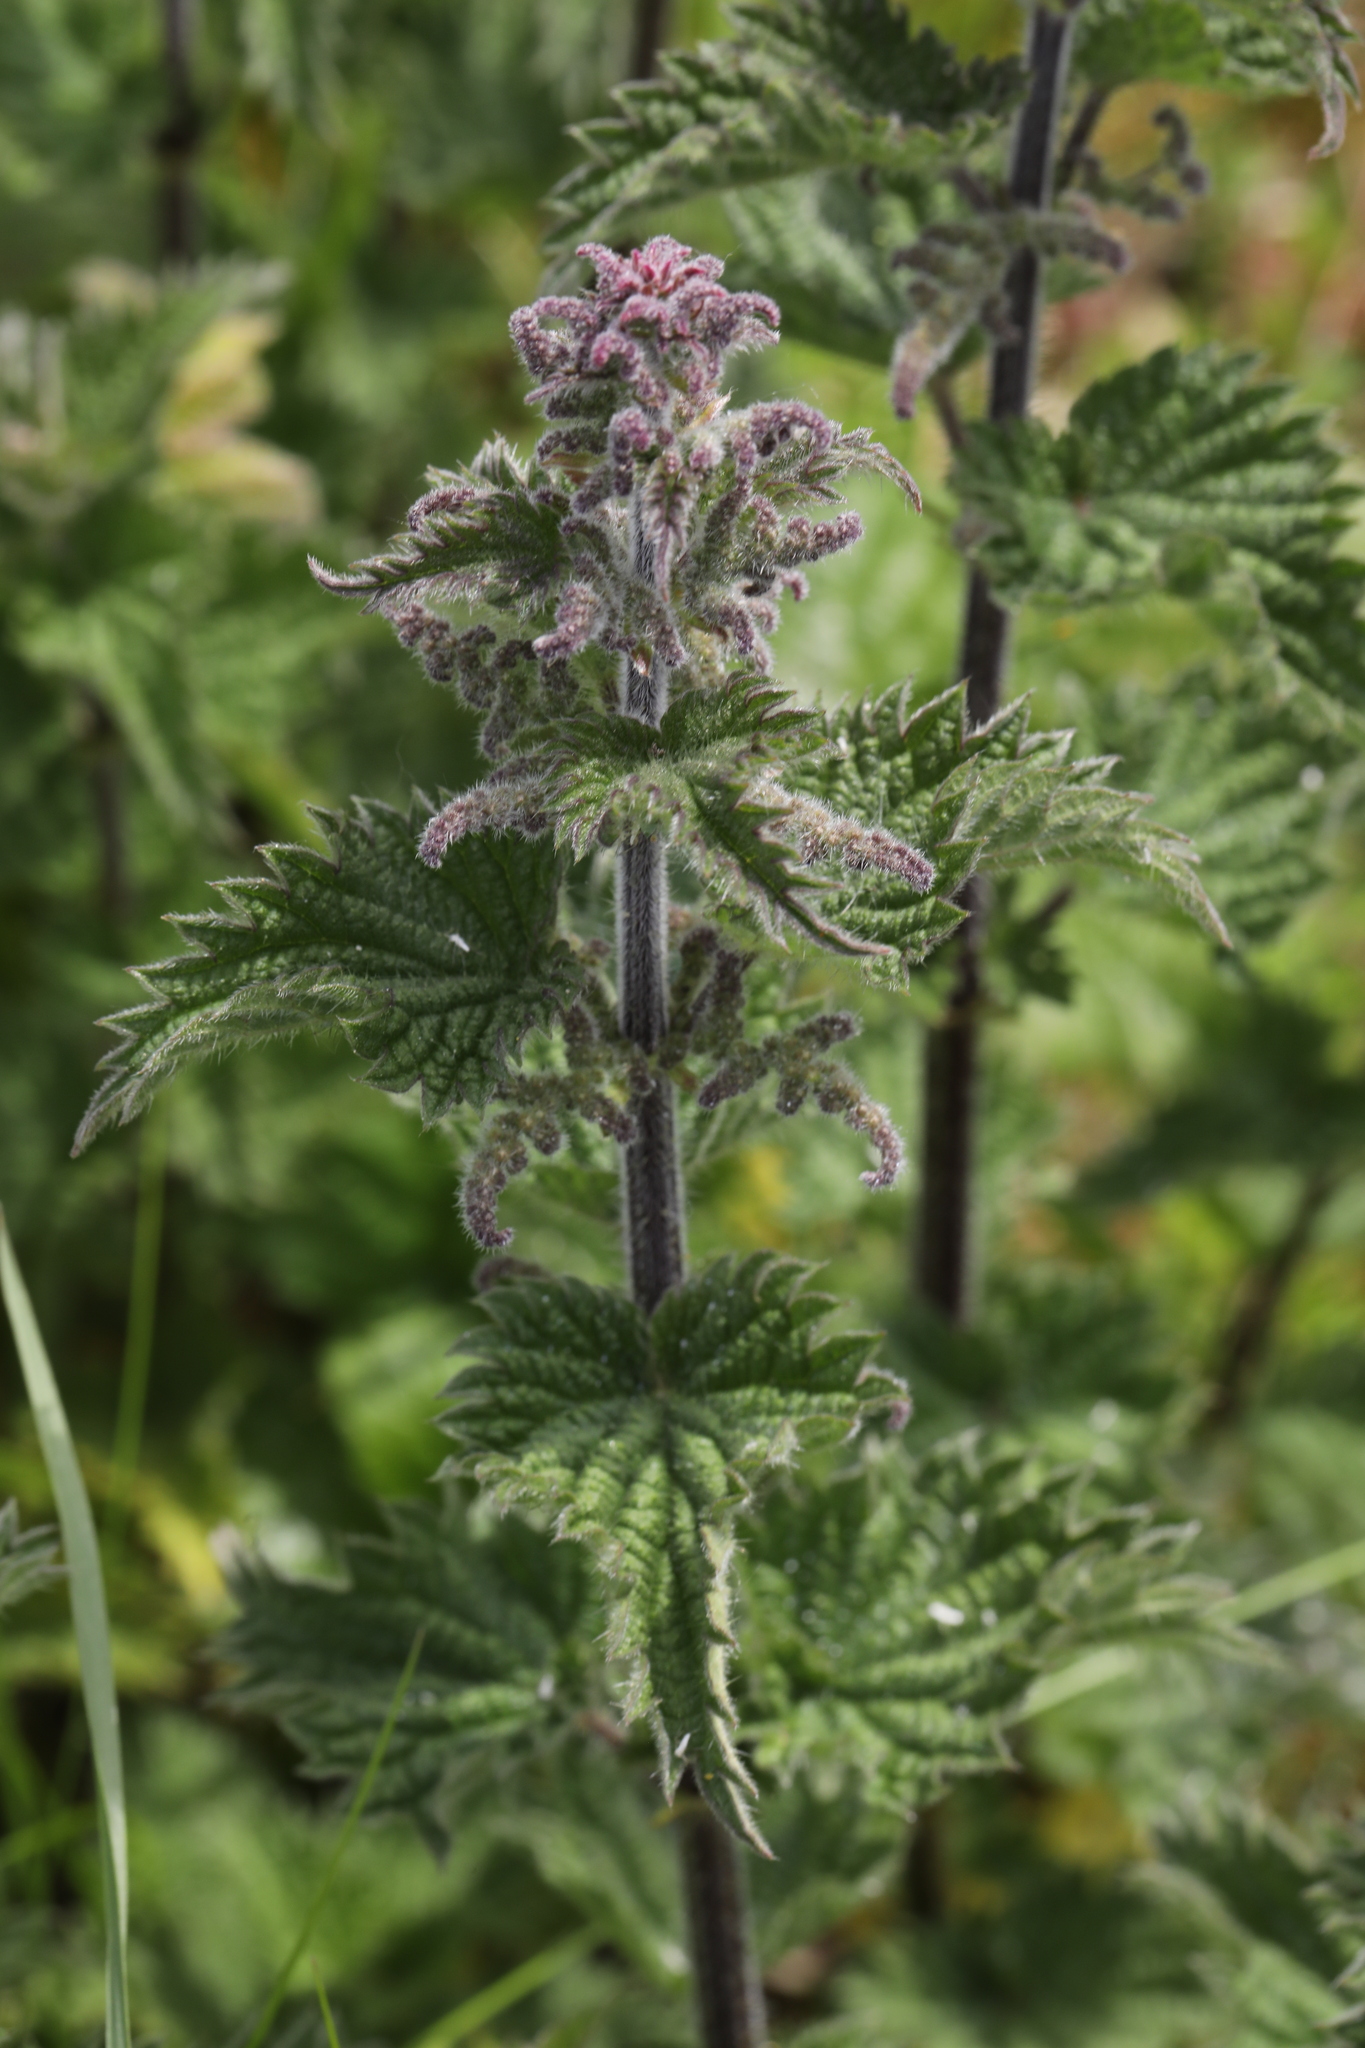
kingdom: Plantae
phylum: Tracheophyta
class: Magnoliopsida
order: Rosales
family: Urticaceae
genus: Urtica
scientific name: Urtica dioica
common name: Common nettle
